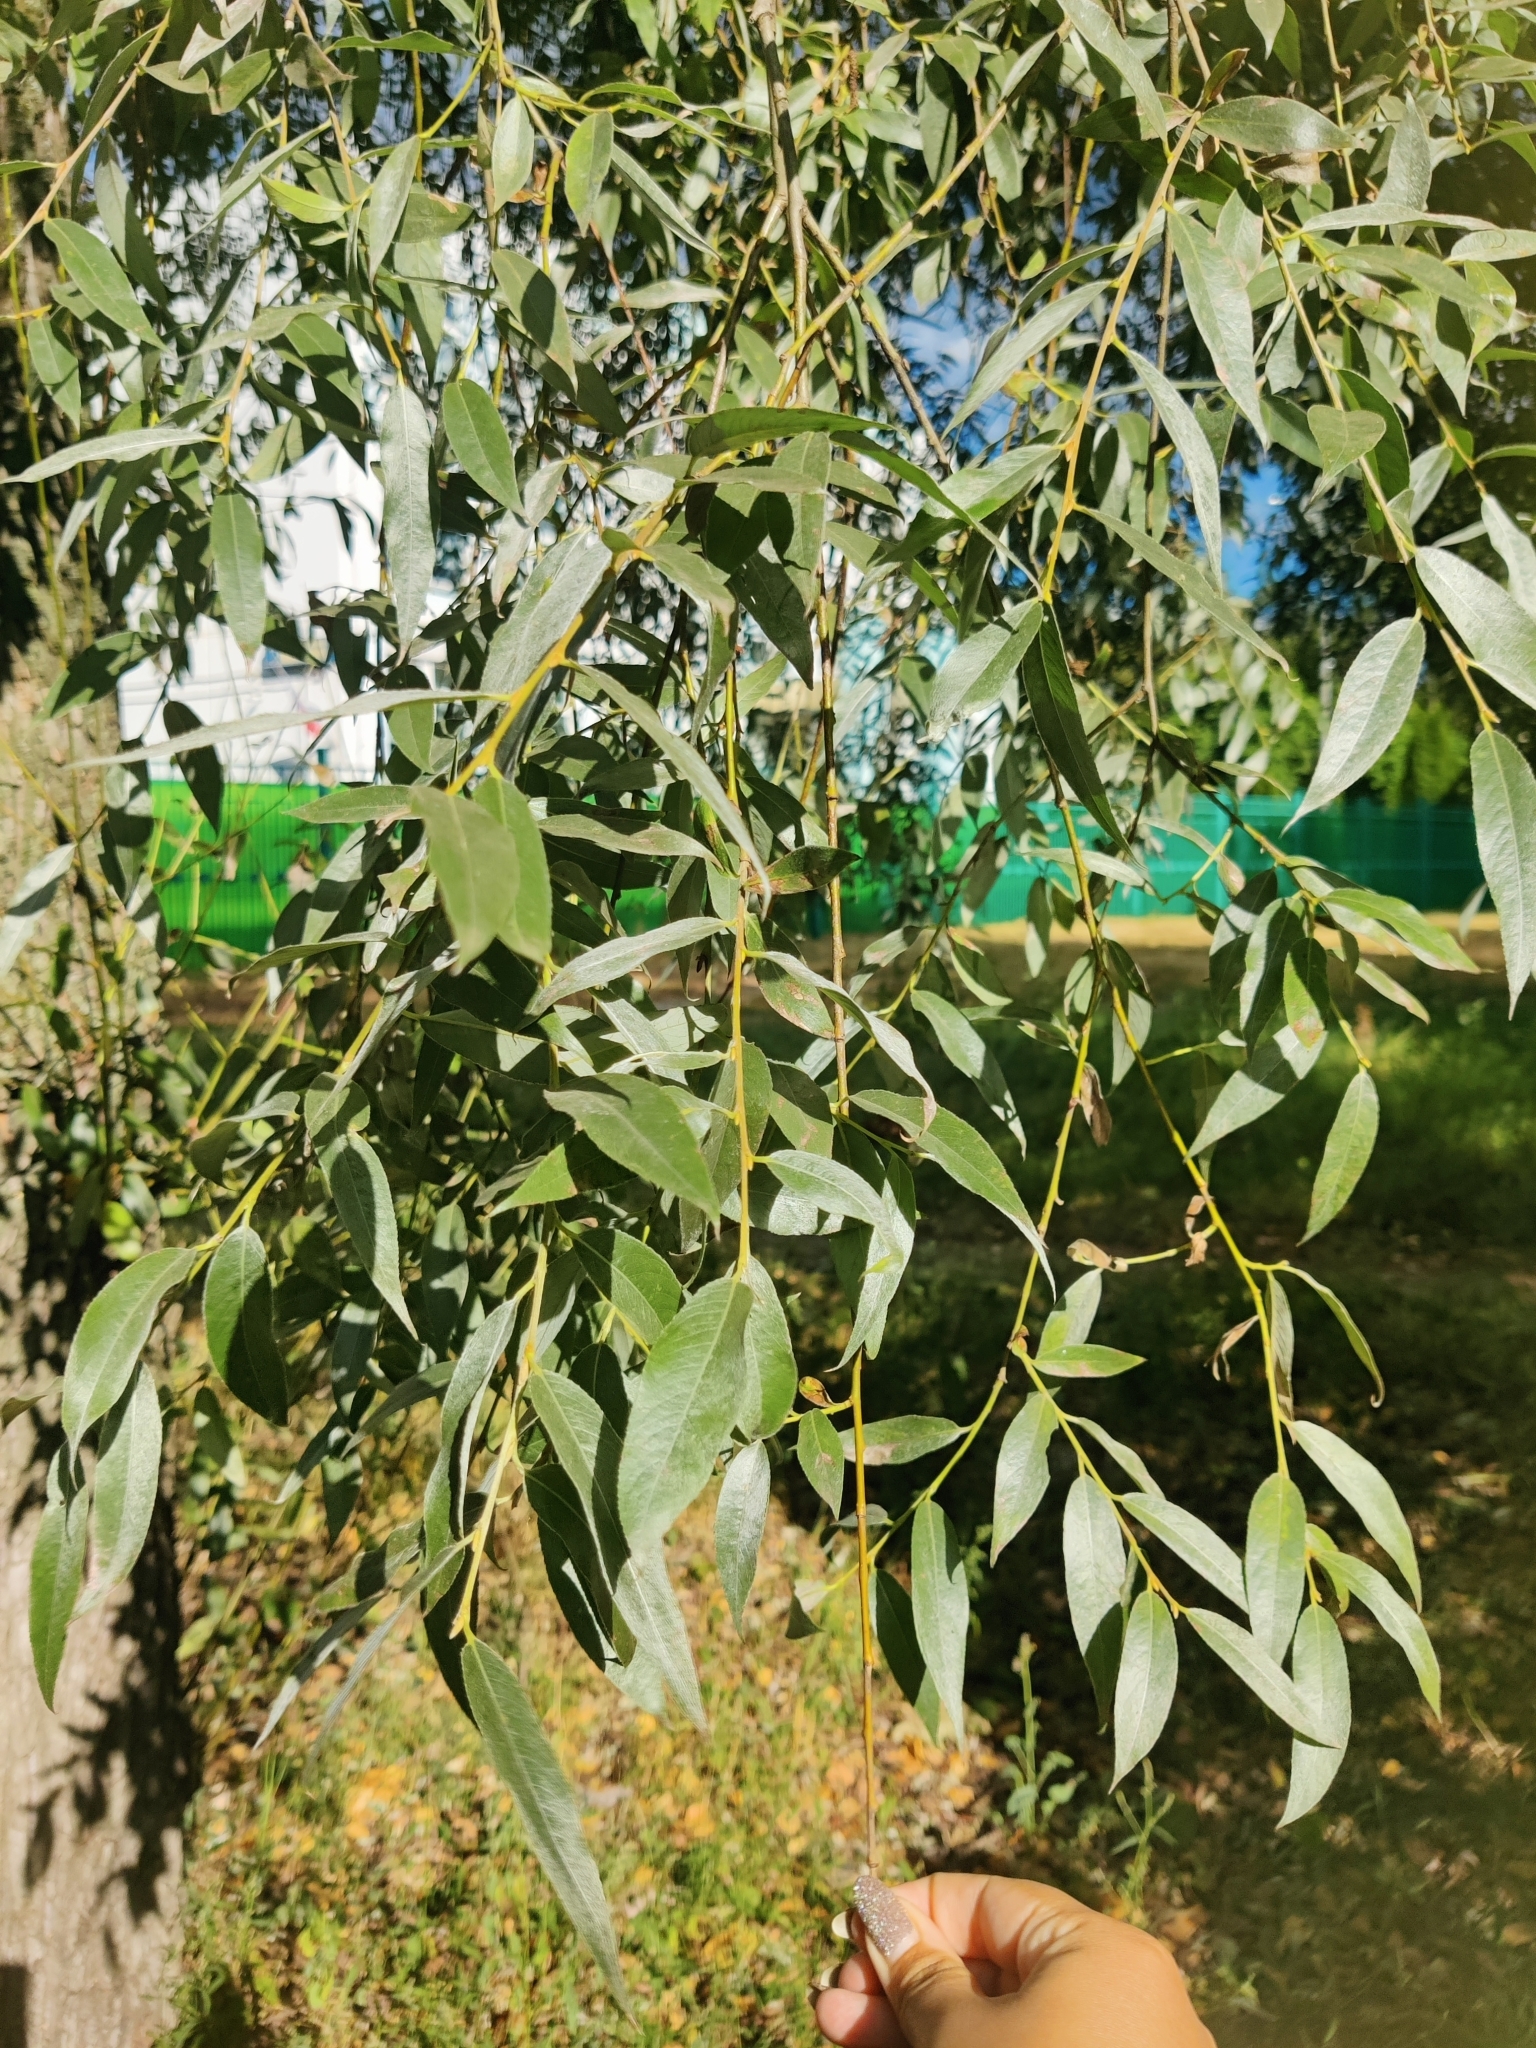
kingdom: Plantae
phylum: Tracheophyta
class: Magnoliopsida
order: Malpighiales
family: Salicaceae
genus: Salix
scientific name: Salix alba
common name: White willow
